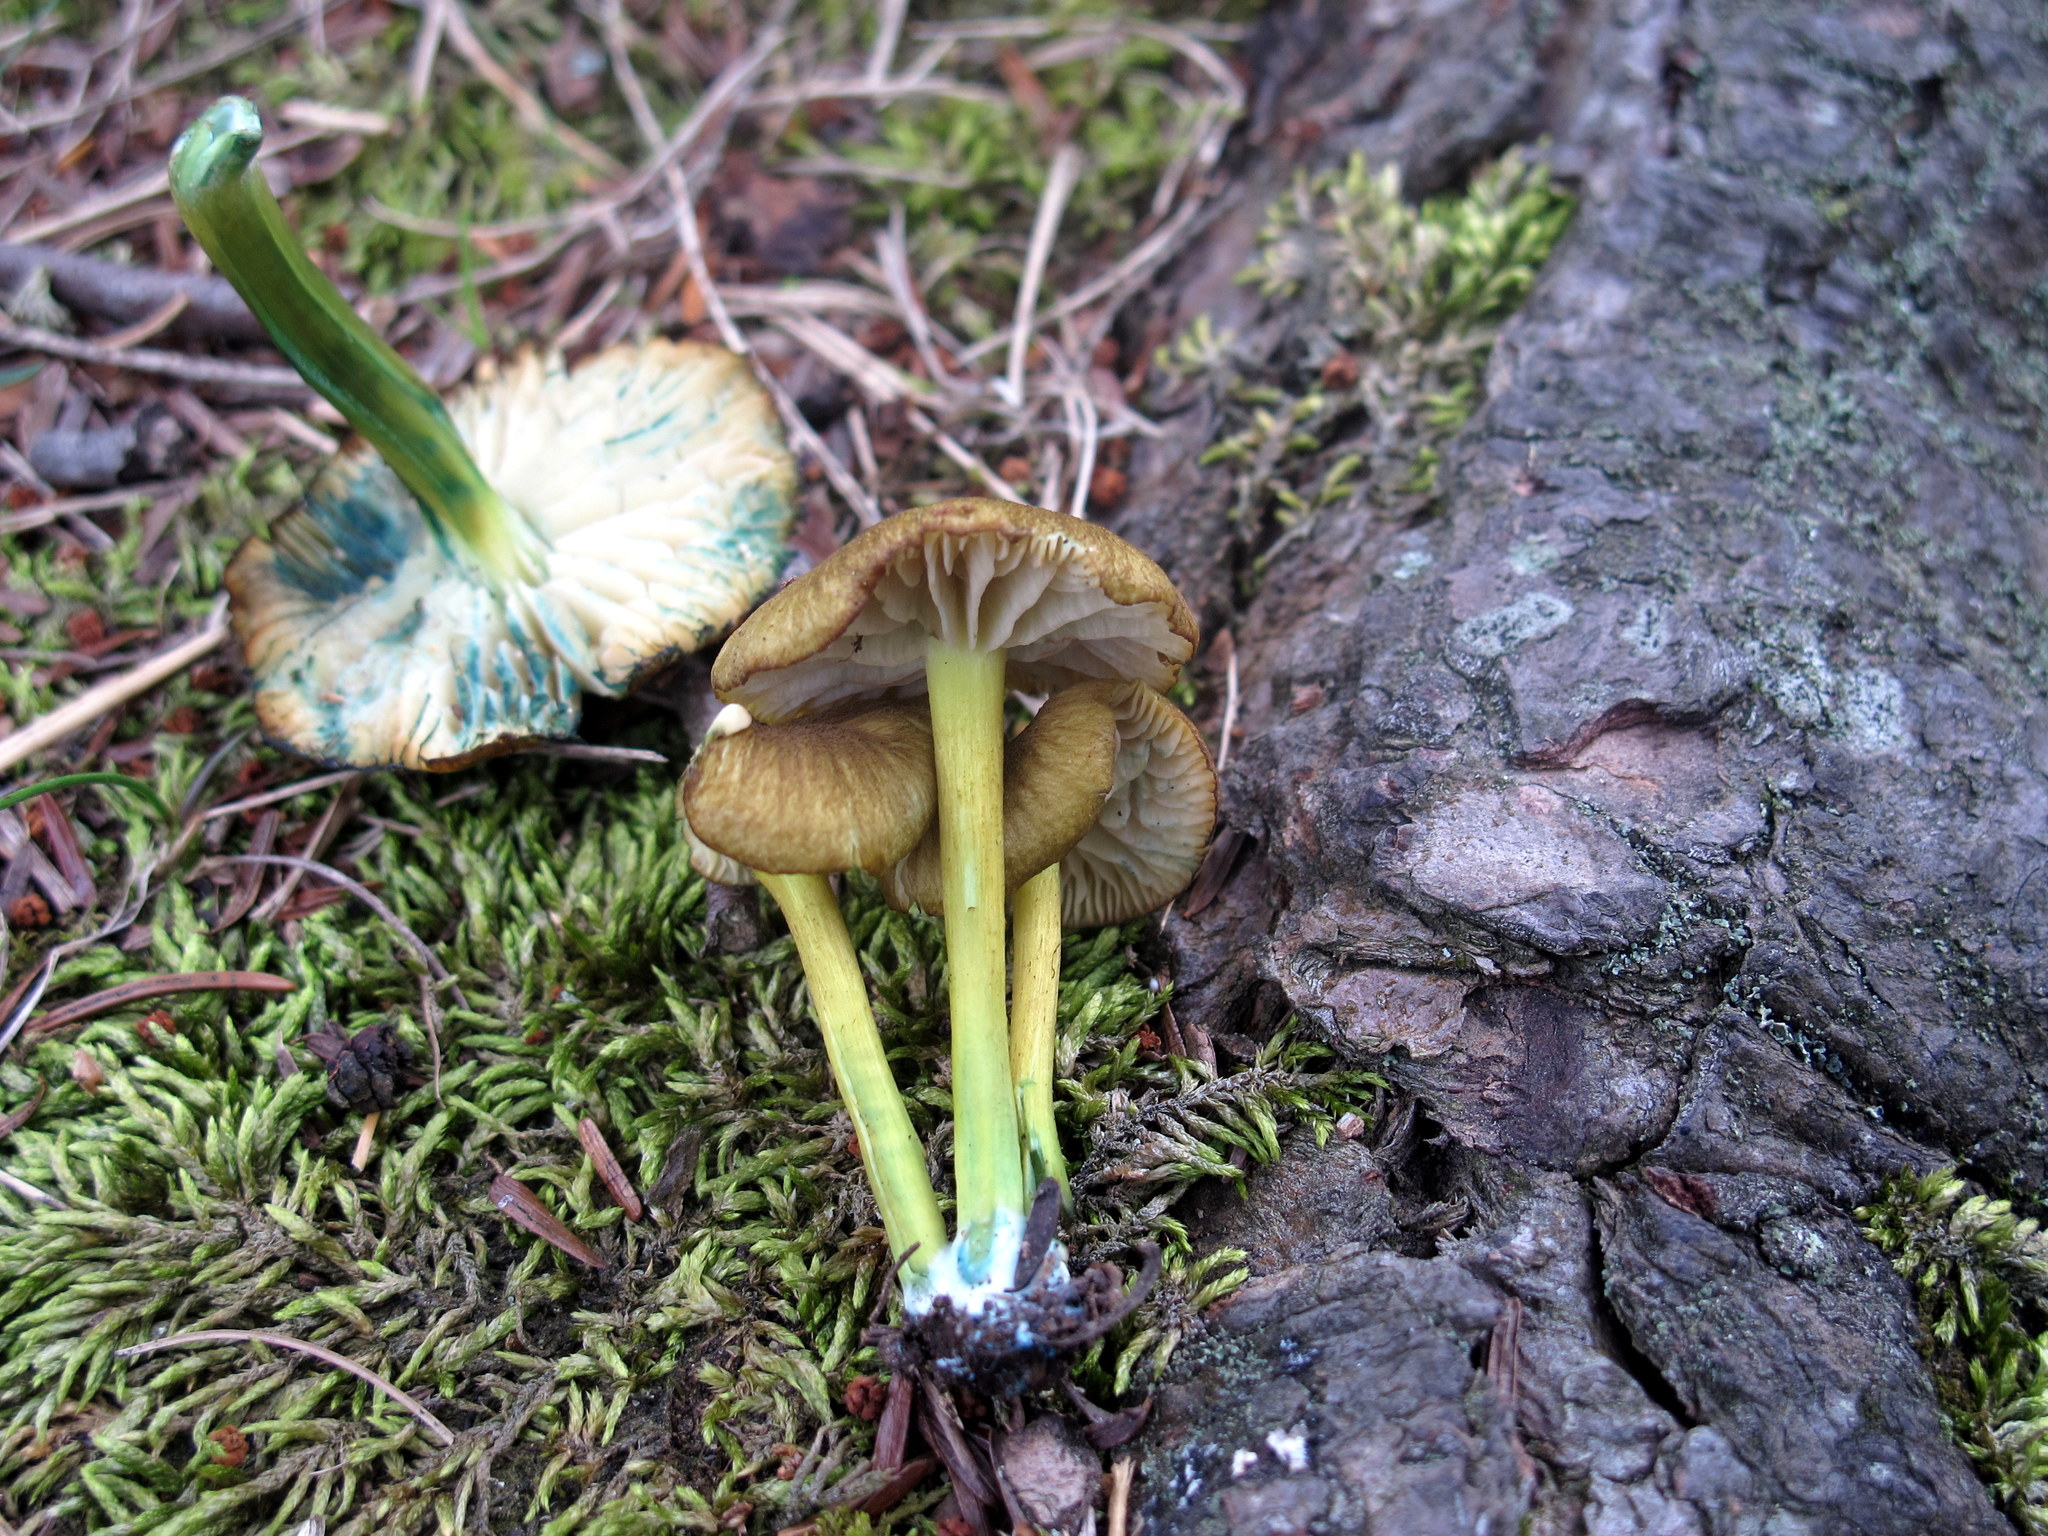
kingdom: Fungi
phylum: Basidiomycota
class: Agaricomycetes
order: Agaricales
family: Entolomataceae
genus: Entoloma
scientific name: Entoloma incanum
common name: Mousepee pinkgill
